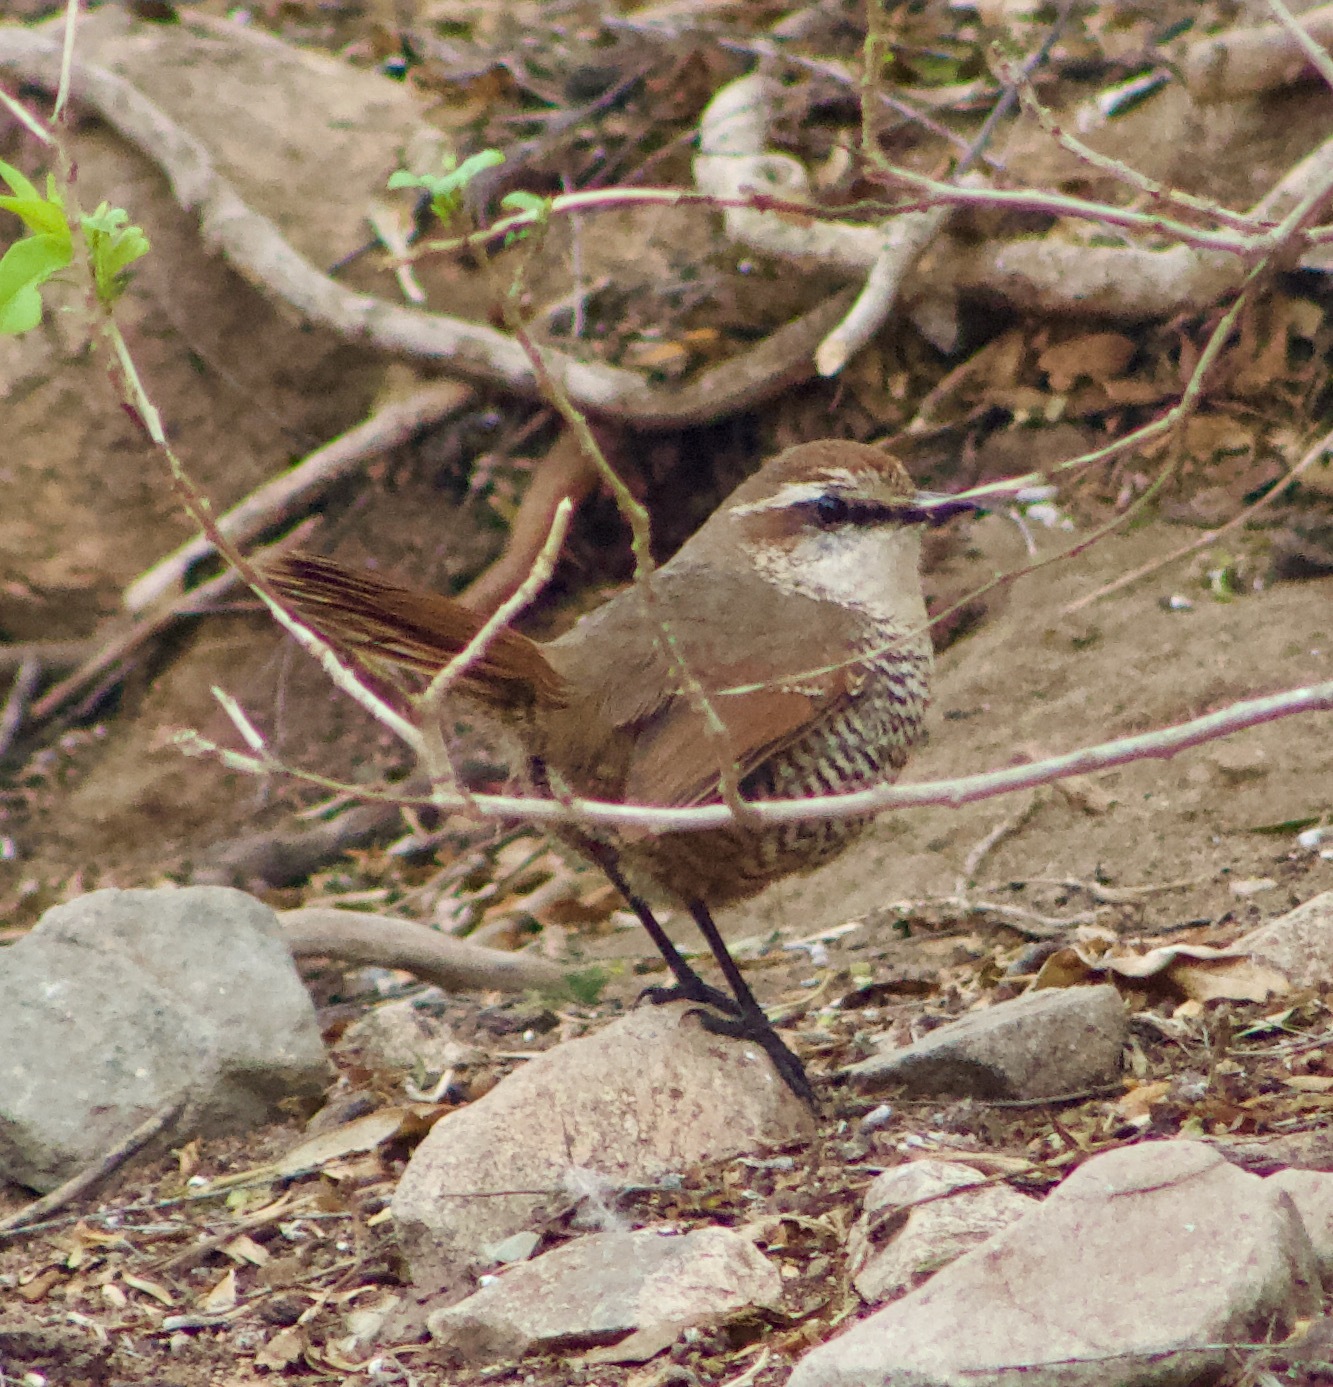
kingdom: Animalia
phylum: Chordata
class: Aves
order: Passeriformes
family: Rhinocryptidae
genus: Scelorchilus
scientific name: Scelorchilus albicollis
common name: White-throated tapaculo
